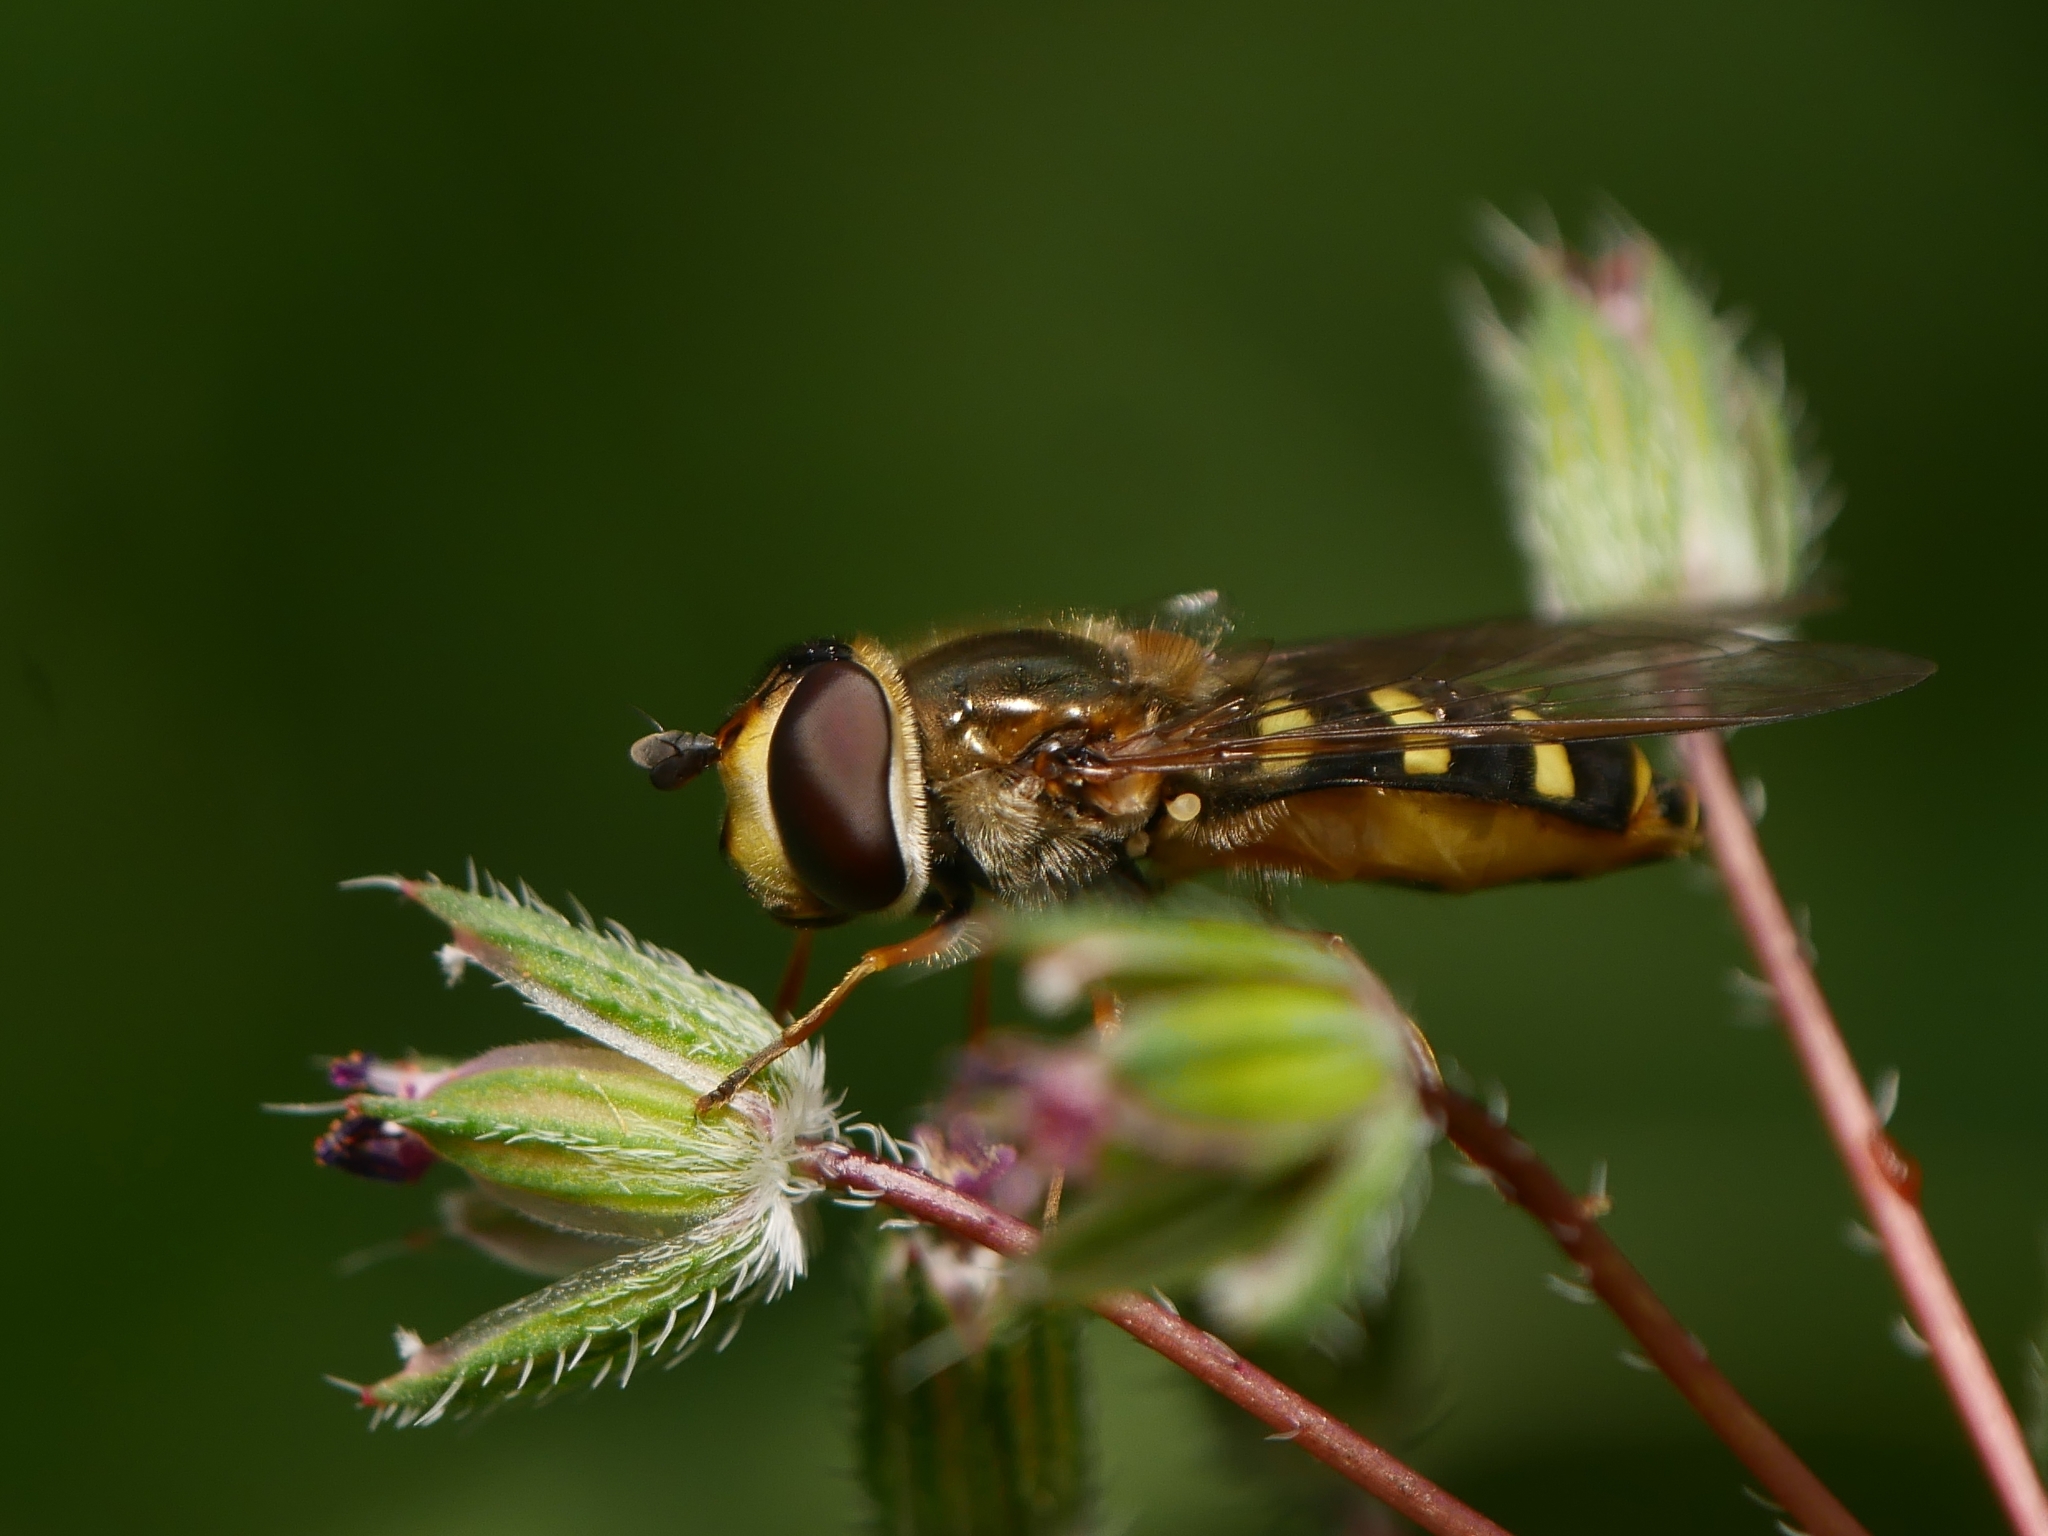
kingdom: Animalia
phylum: Arthropoda
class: Insecta
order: Diptera
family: Syrphidae
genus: Eupeodes
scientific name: Eupeodes luniger
